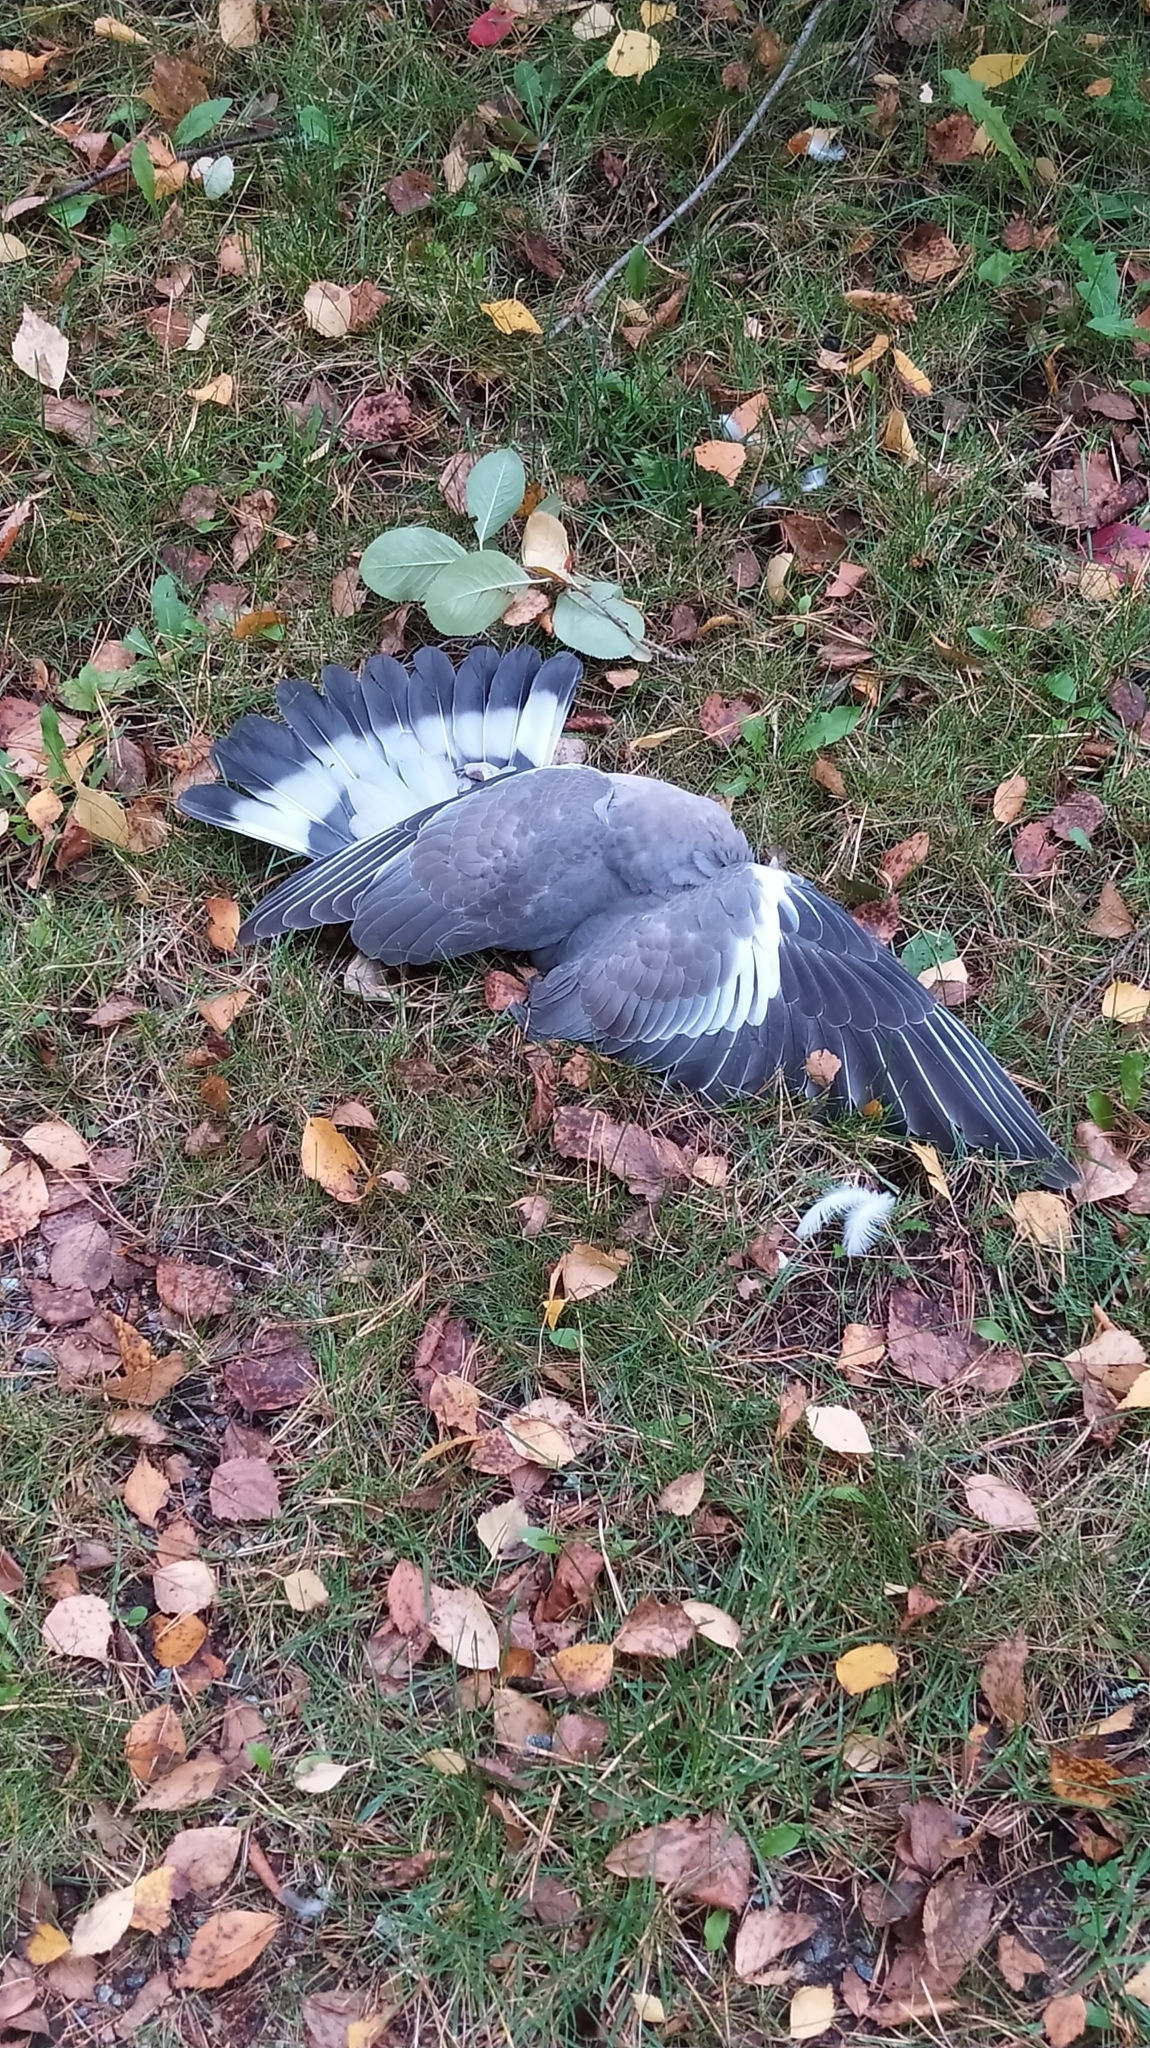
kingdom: Animalia
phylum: Chordata
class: Aves
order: Columbiformes
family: Columbidae
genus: Columba
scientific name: Columba palumbus
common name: Common wood pigeon
